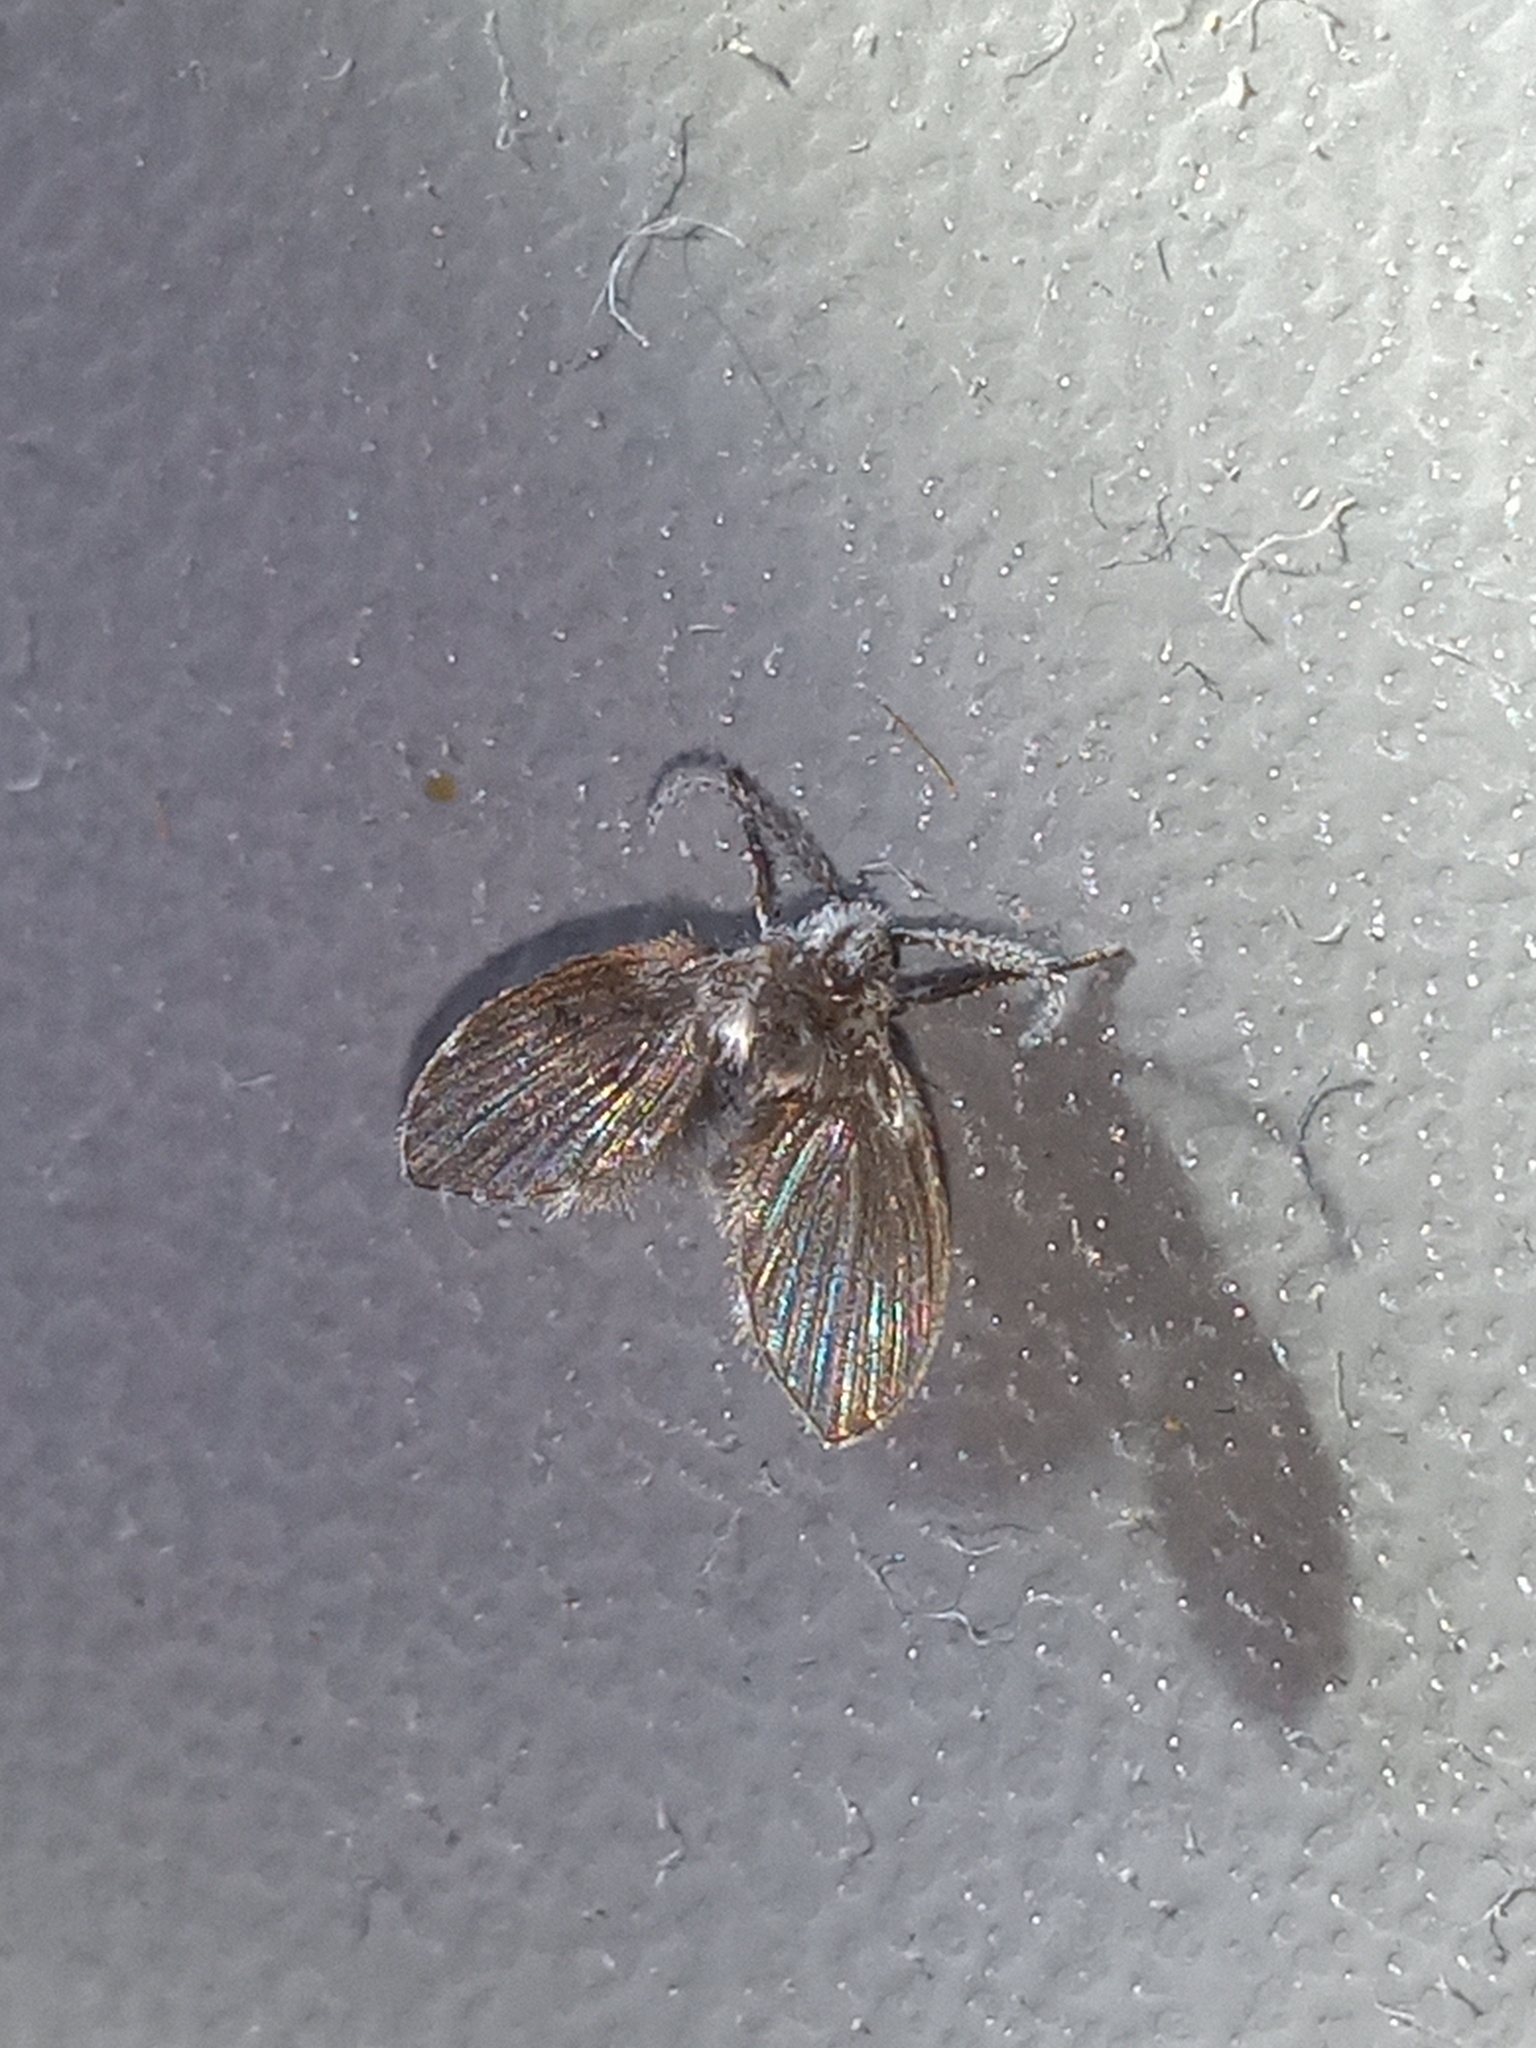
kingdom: Animalia
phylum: Arthropoda
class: Insecta
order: Diptera
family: Psychodidae
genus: Clogmia
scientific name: Clogmia albipunctatus
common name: White-spotted moth fly
